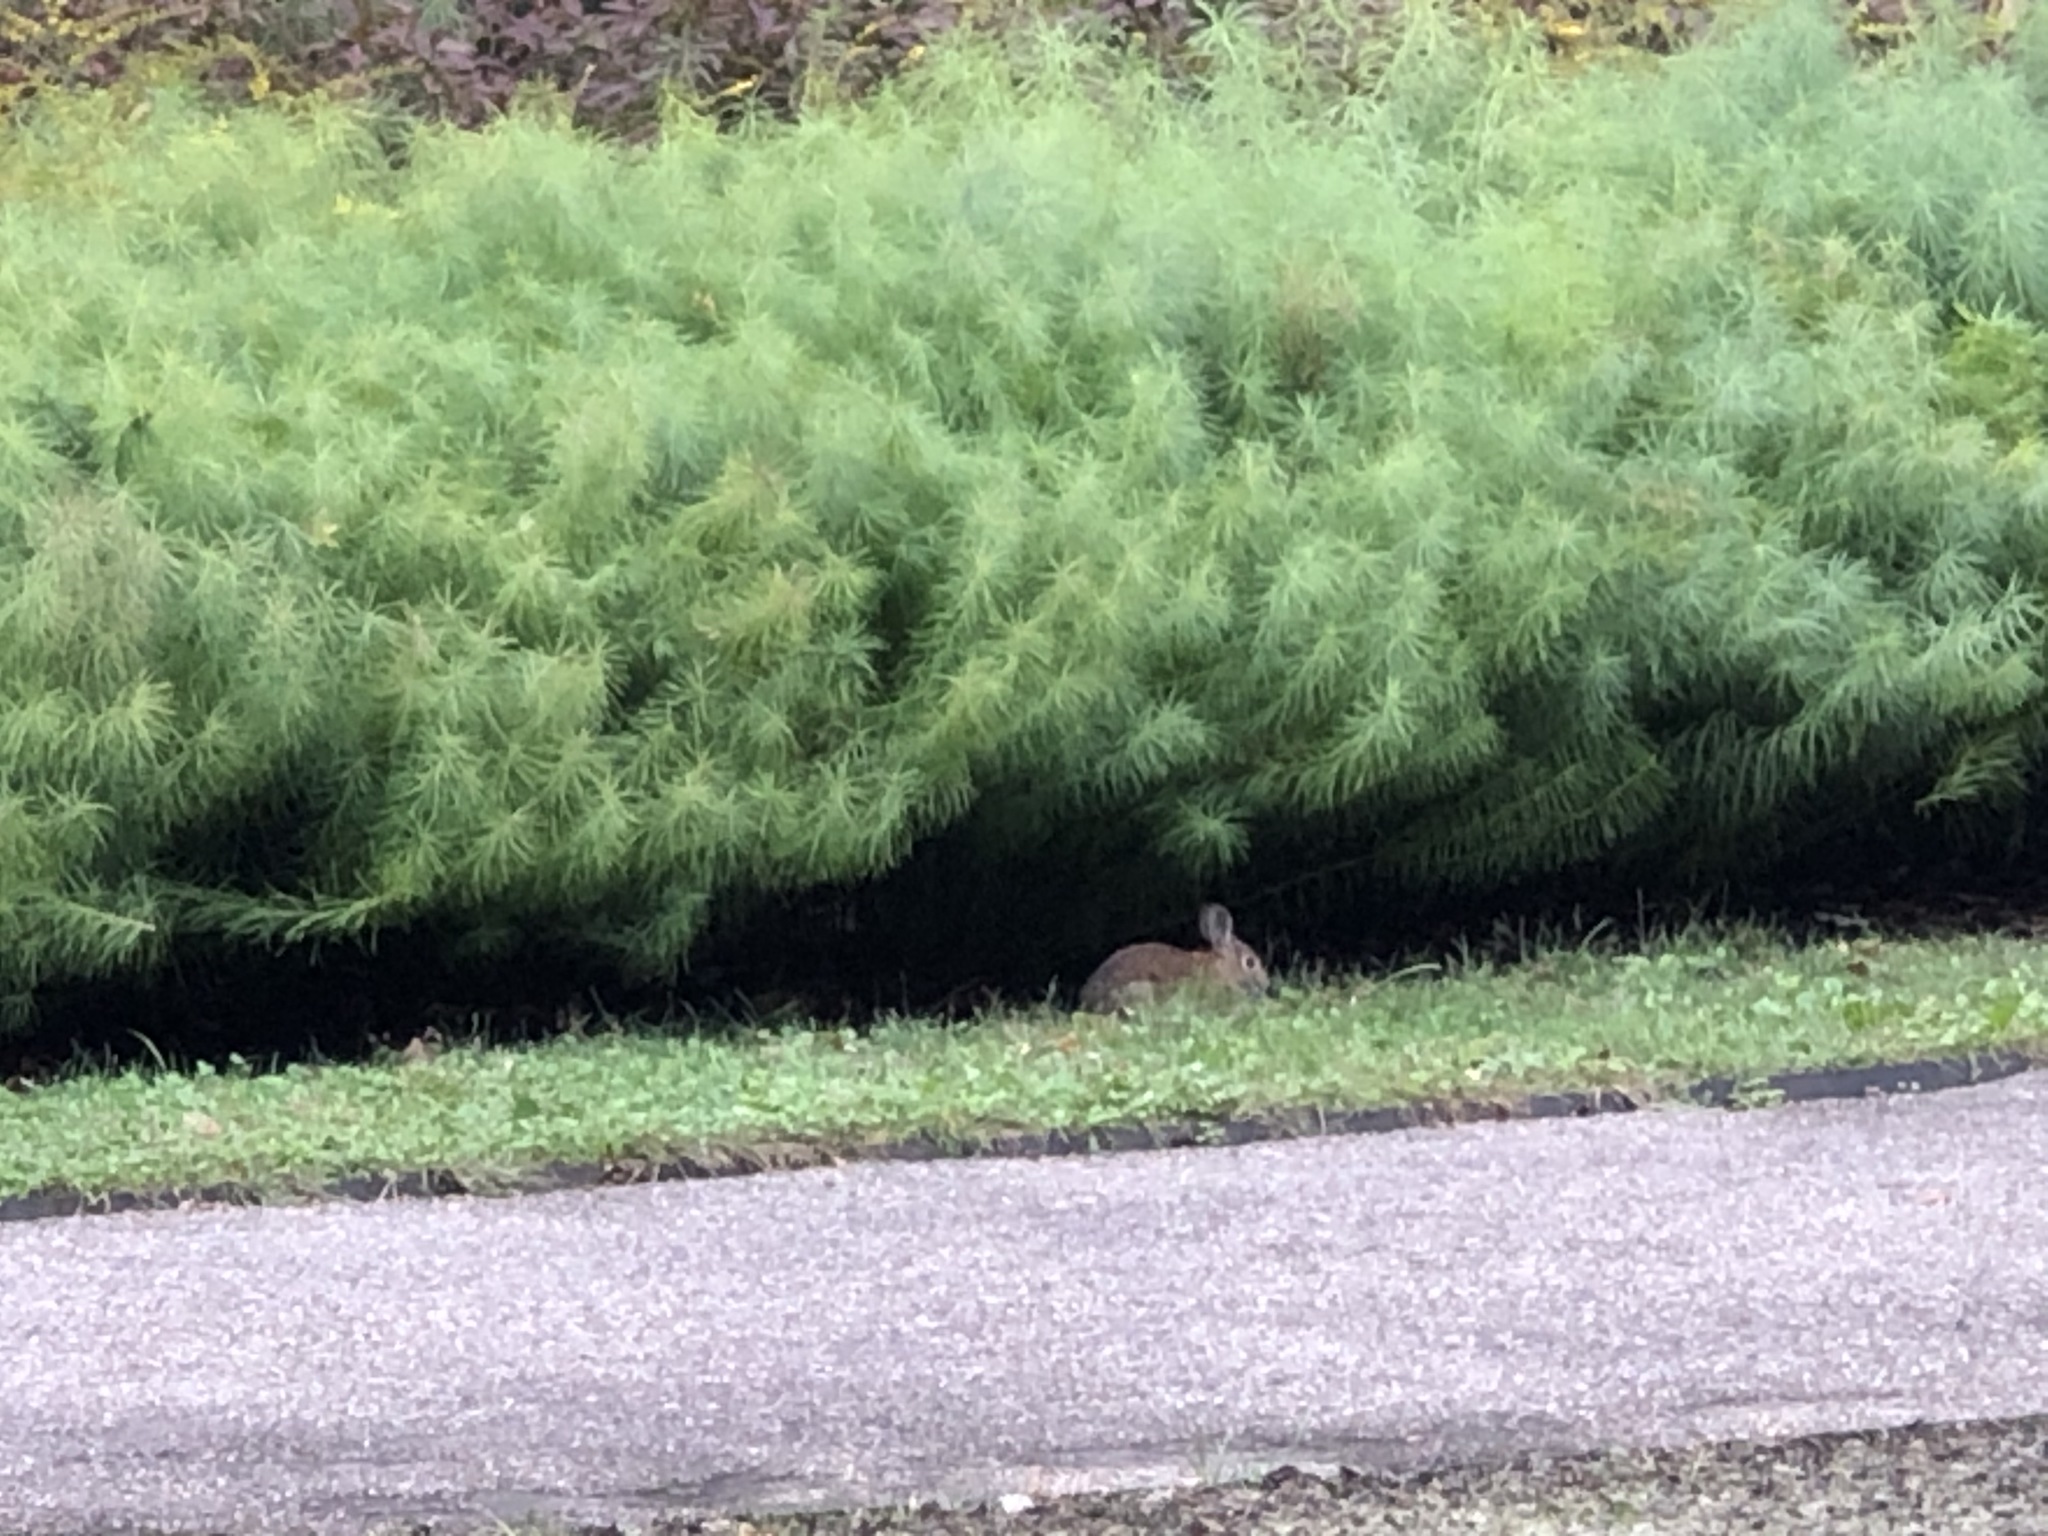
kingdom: Animalia
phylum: Chordata
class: Mammalia
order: Lagomorpha
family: Leporidae
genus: Sylvilagus
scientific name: Sylvilagus floridanus
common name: Eastern cottontail
